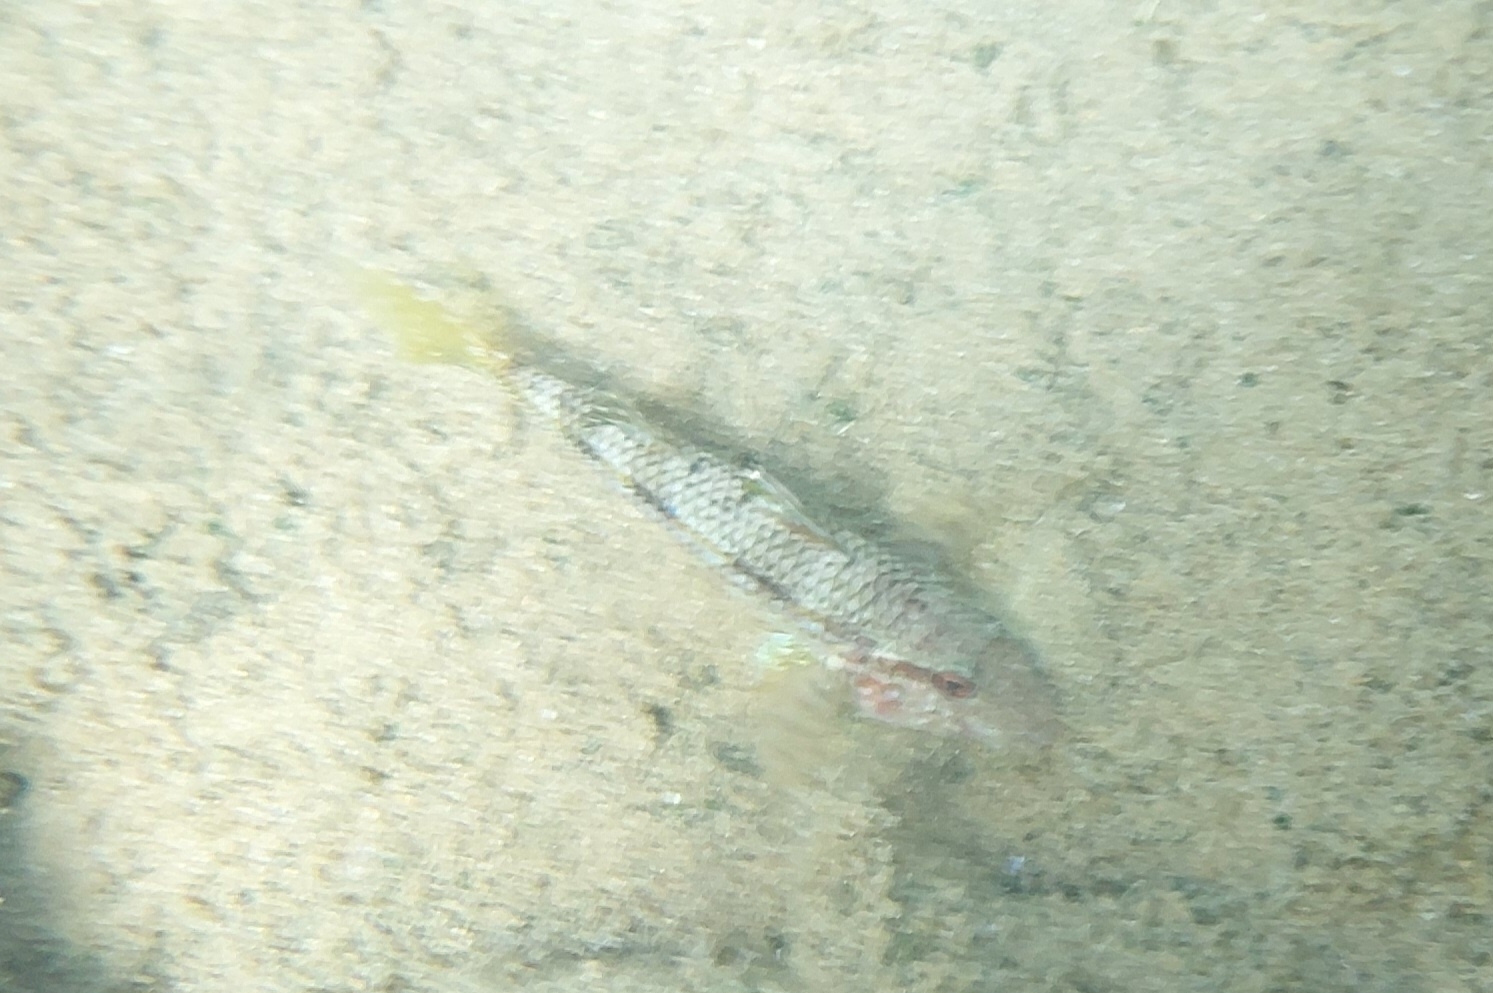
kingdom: Animalia
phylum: Chordata
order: Perciformes
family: Mullidae
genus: Mullus
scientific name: Mullus surmuletus
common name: Red mullet
